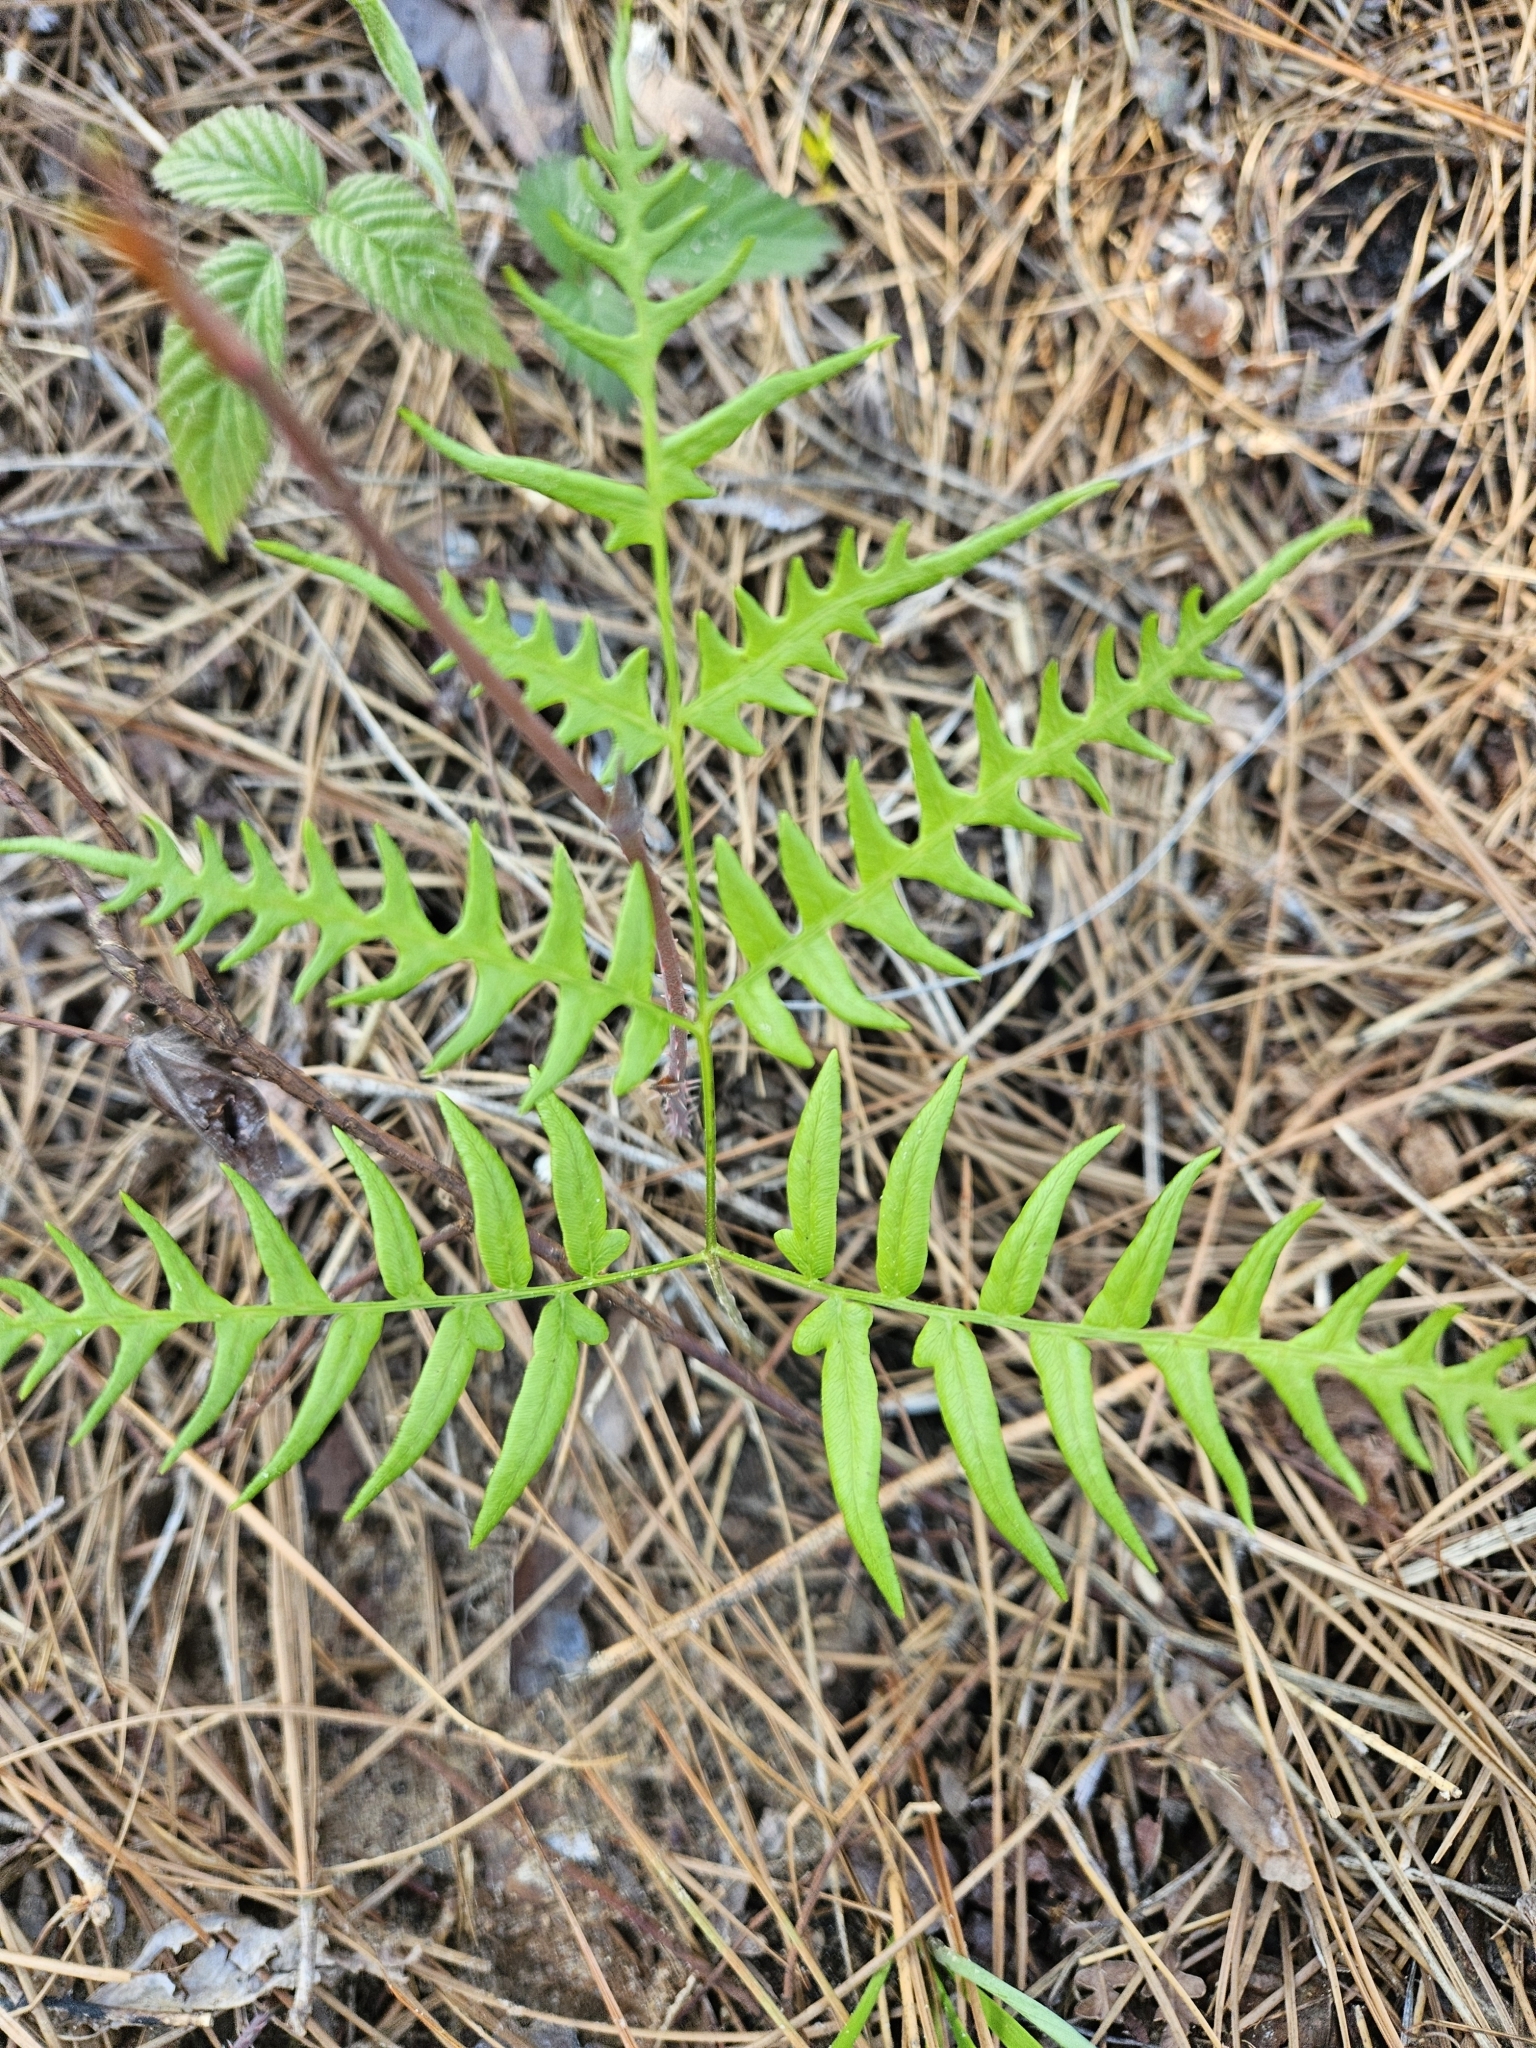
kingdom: Plantae
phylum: Tracheophyta
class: Polypodiopsida
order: Polypodiales
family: Dennstaedtiaceae
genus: Pteridium
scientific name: Pteridium
